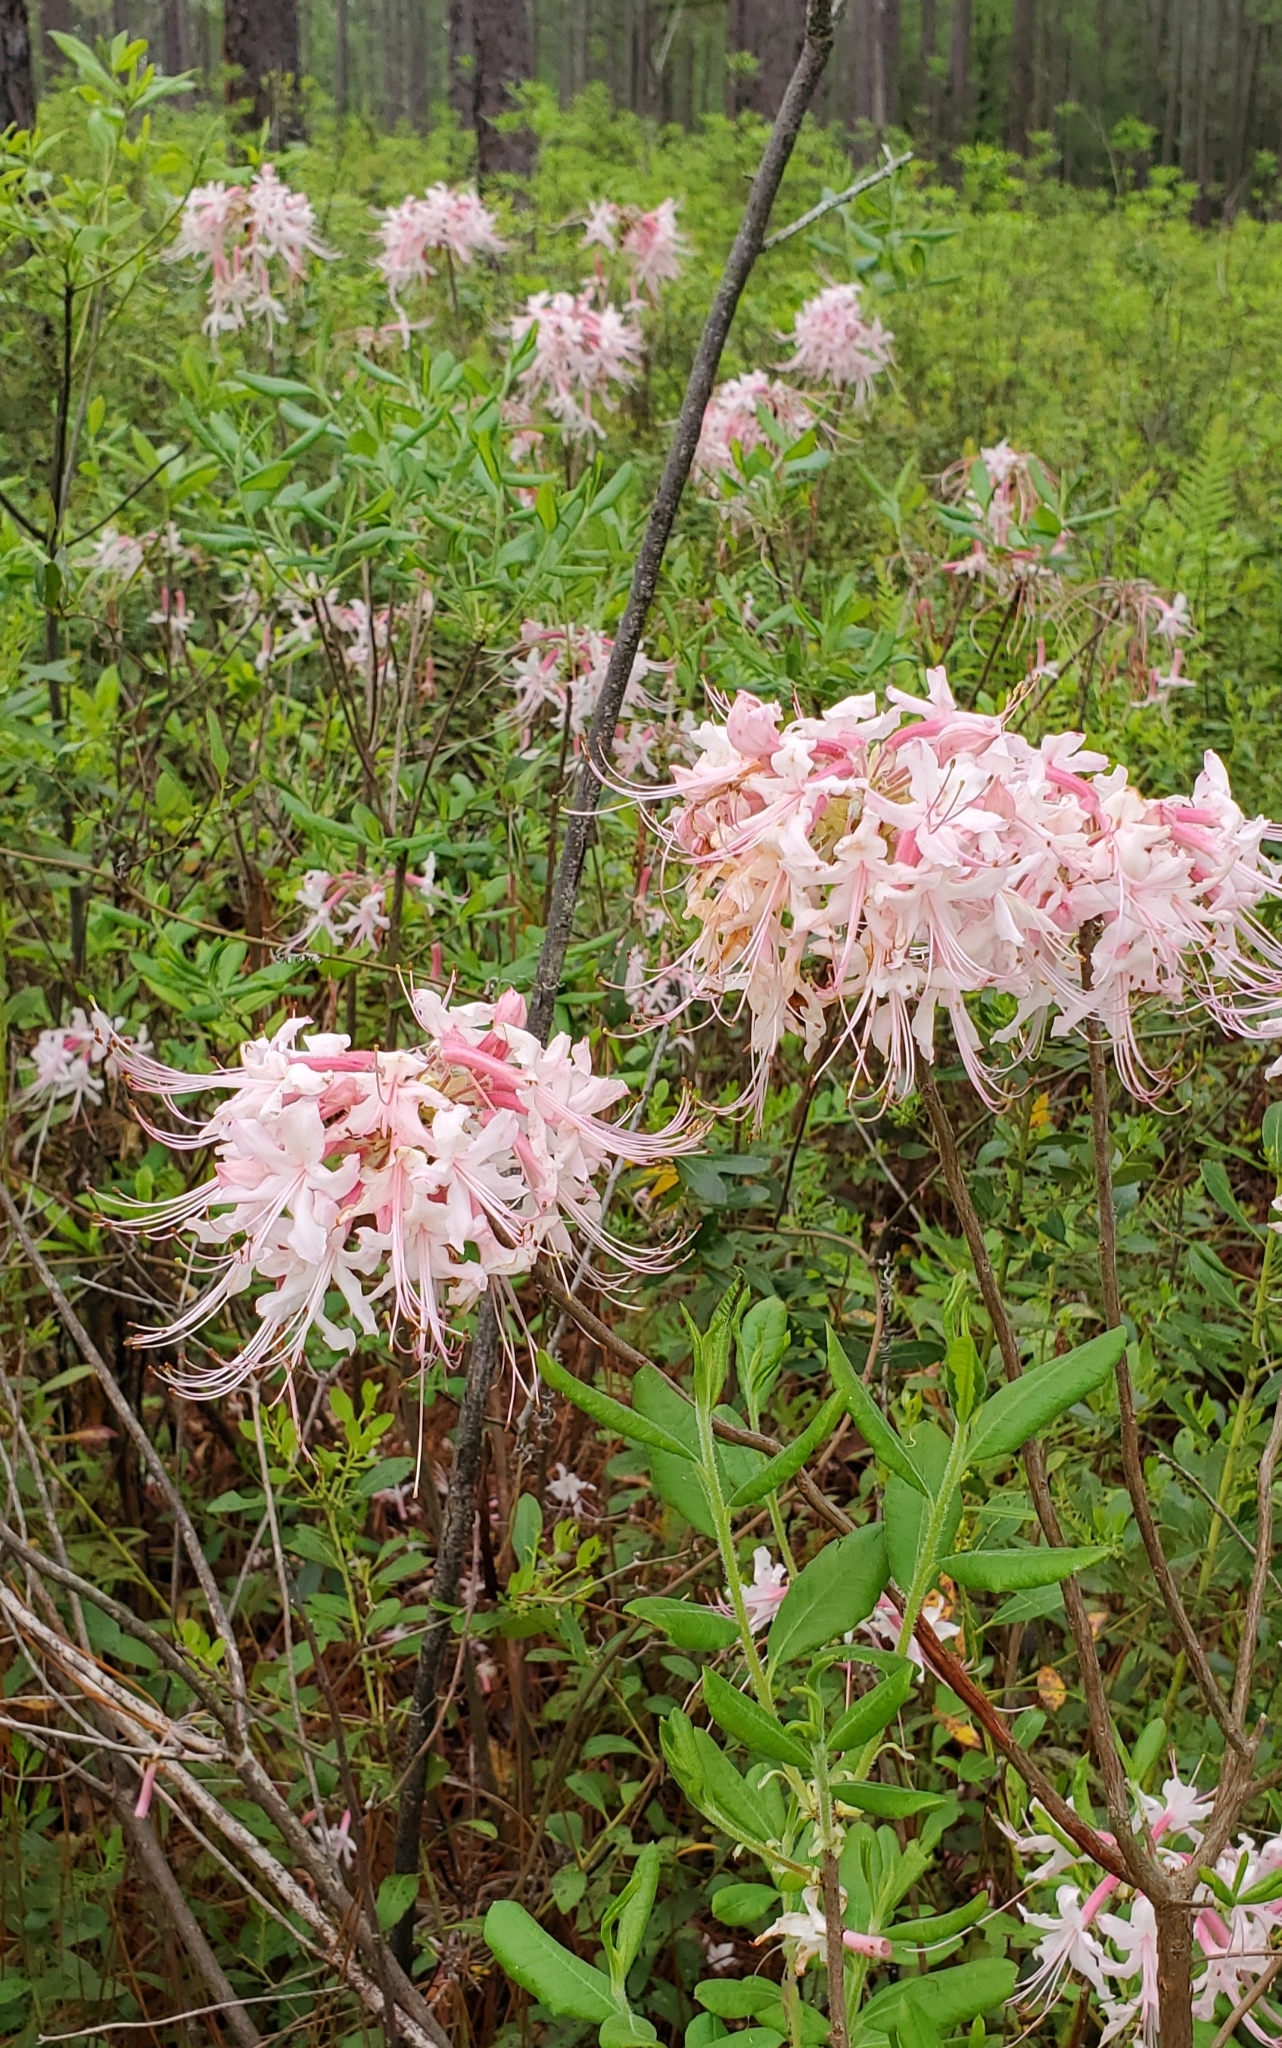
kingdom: Plantae
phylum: Tracheophyta
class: Magnoliopsida
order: Ericales
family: Ericaceae
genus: Rhododendron
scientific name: Rhododendron canescens
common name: Mountain azalea
